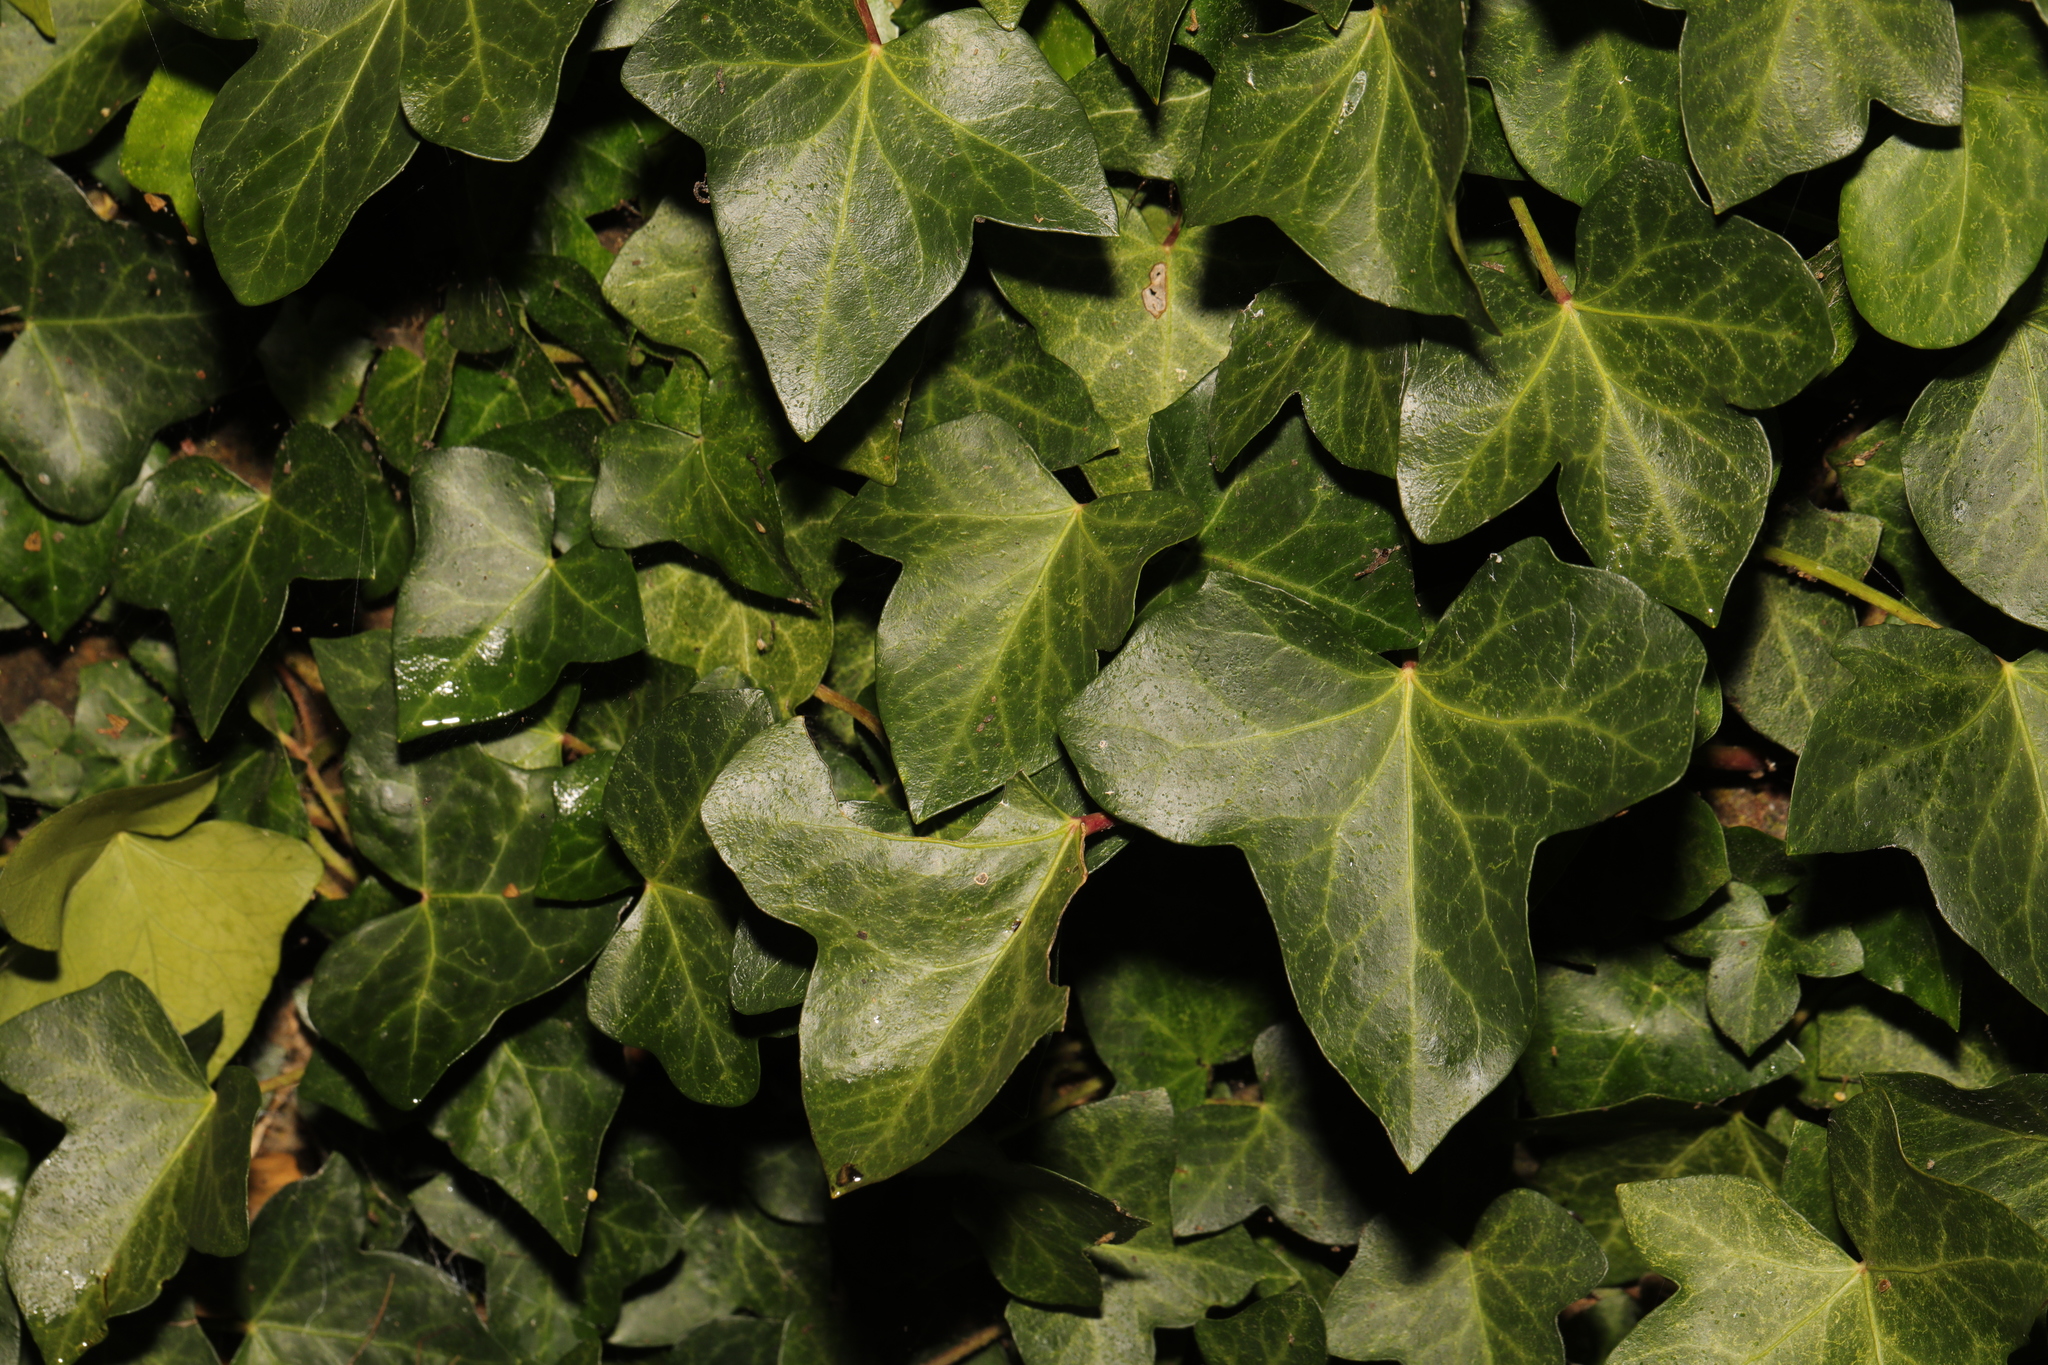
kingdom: Plantae
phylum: Tracheophyta
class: Magnoliopsida
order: Apiales
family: Araliaceae
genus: Hedera
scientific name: Hedera helix
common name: Ivy
